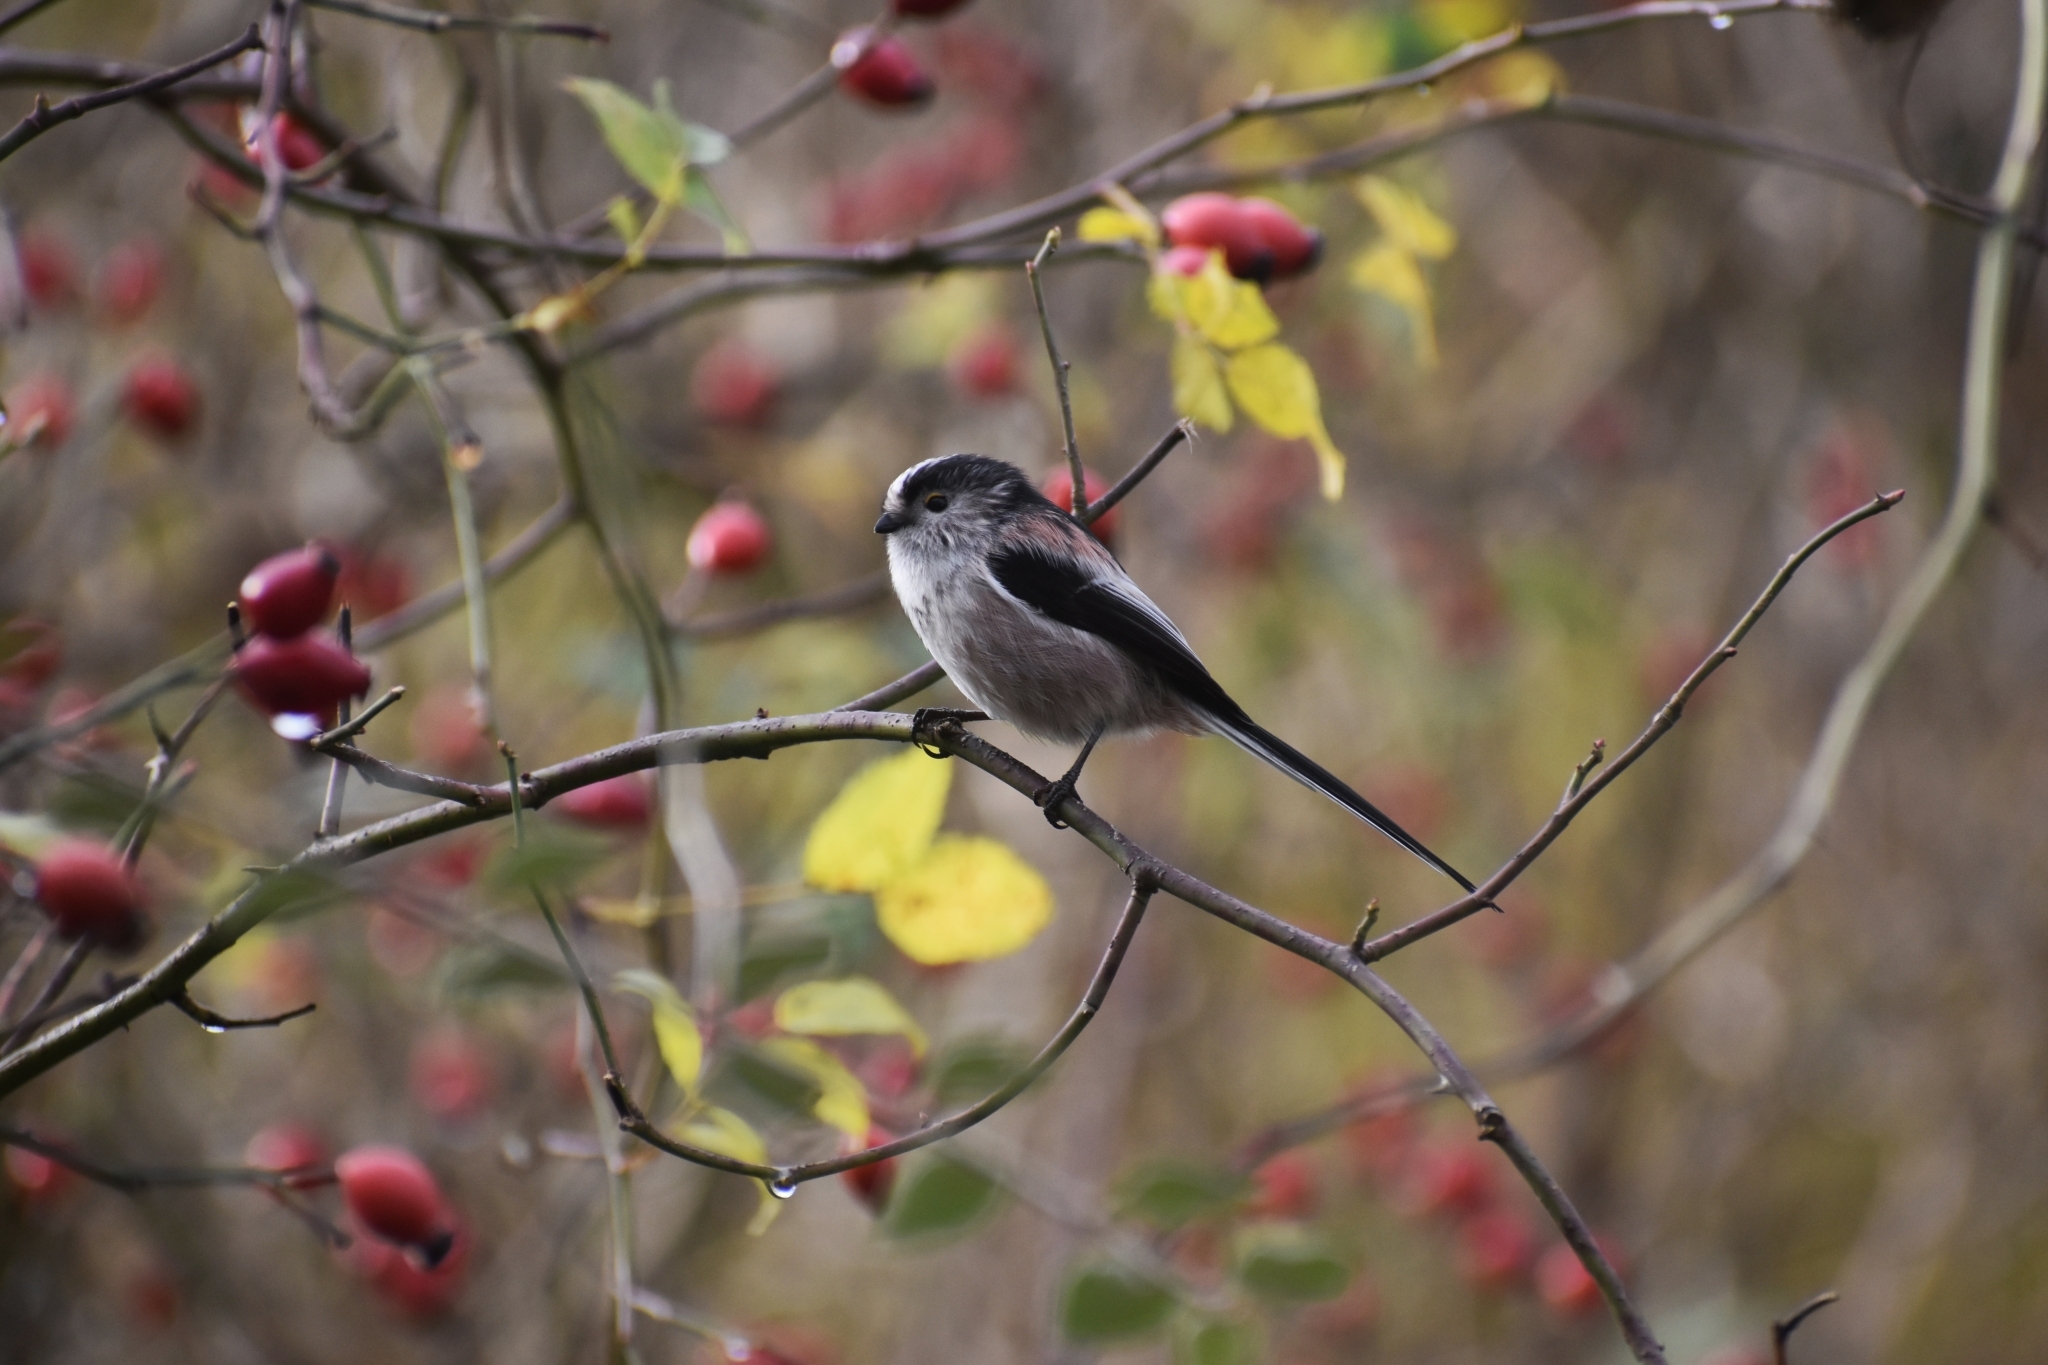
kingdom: Animalia
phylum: Chordata
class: Aves
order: Passeriformes
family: Aegithalidae
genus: Aegithalos
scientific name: Aegithalos caudatus
